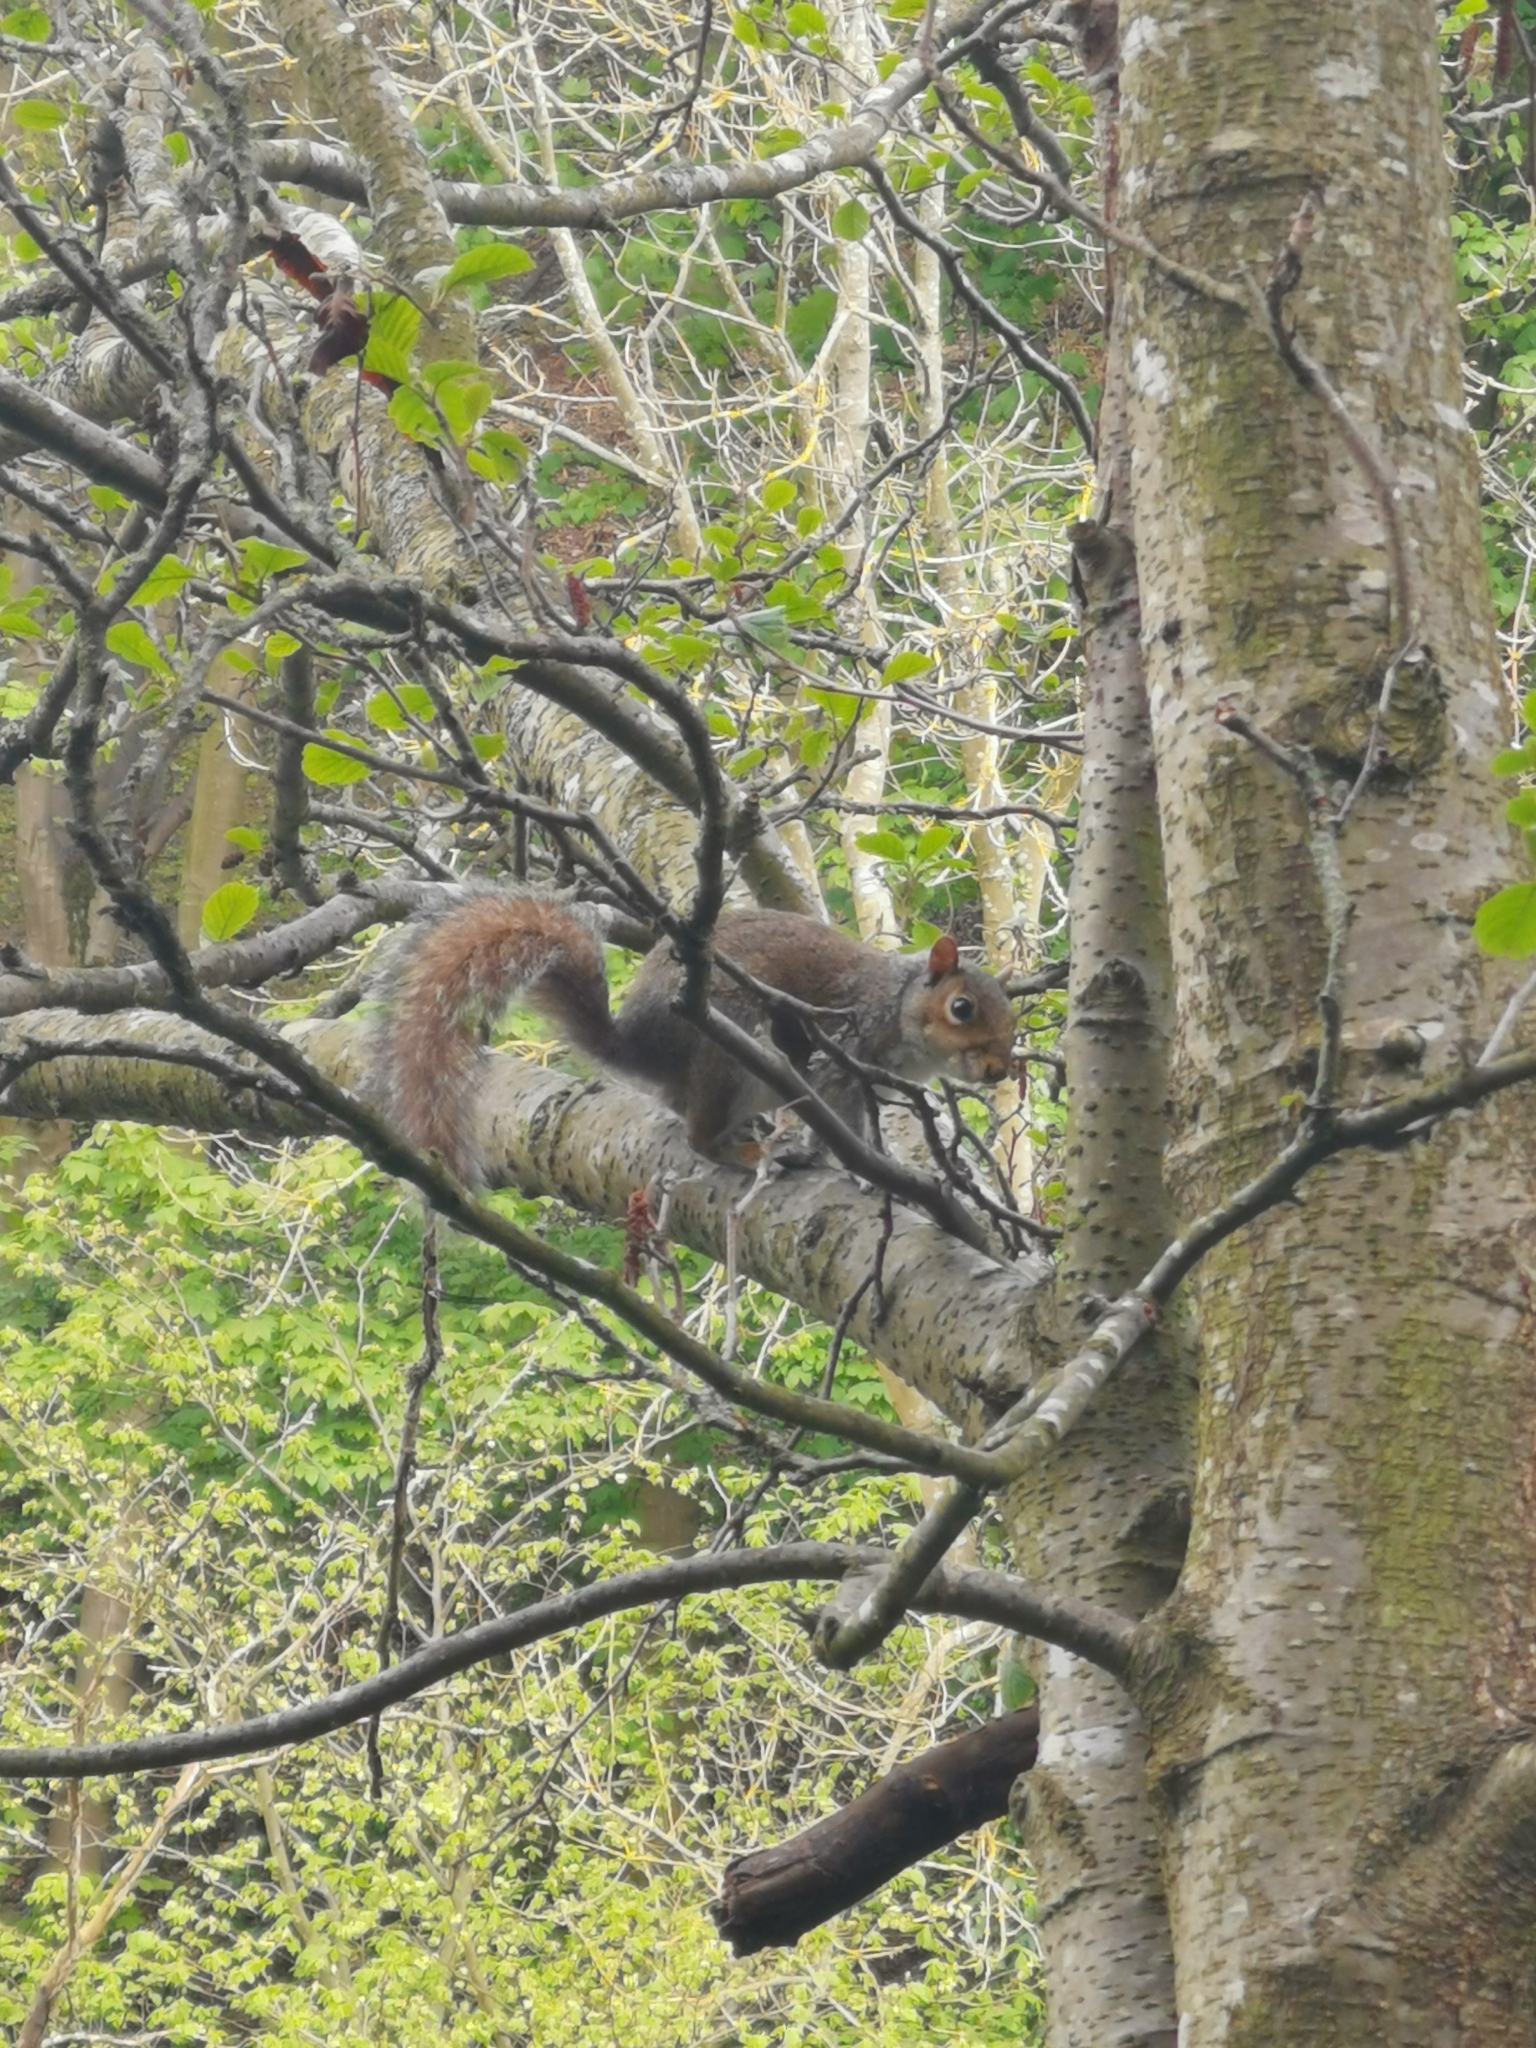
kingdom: Animalia
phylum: Chordata
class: Mammalia
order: Rodentia
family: Sciuridae
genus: Sciurus
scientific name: Sciurus carolinensis
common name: Eastern gray squirrel
